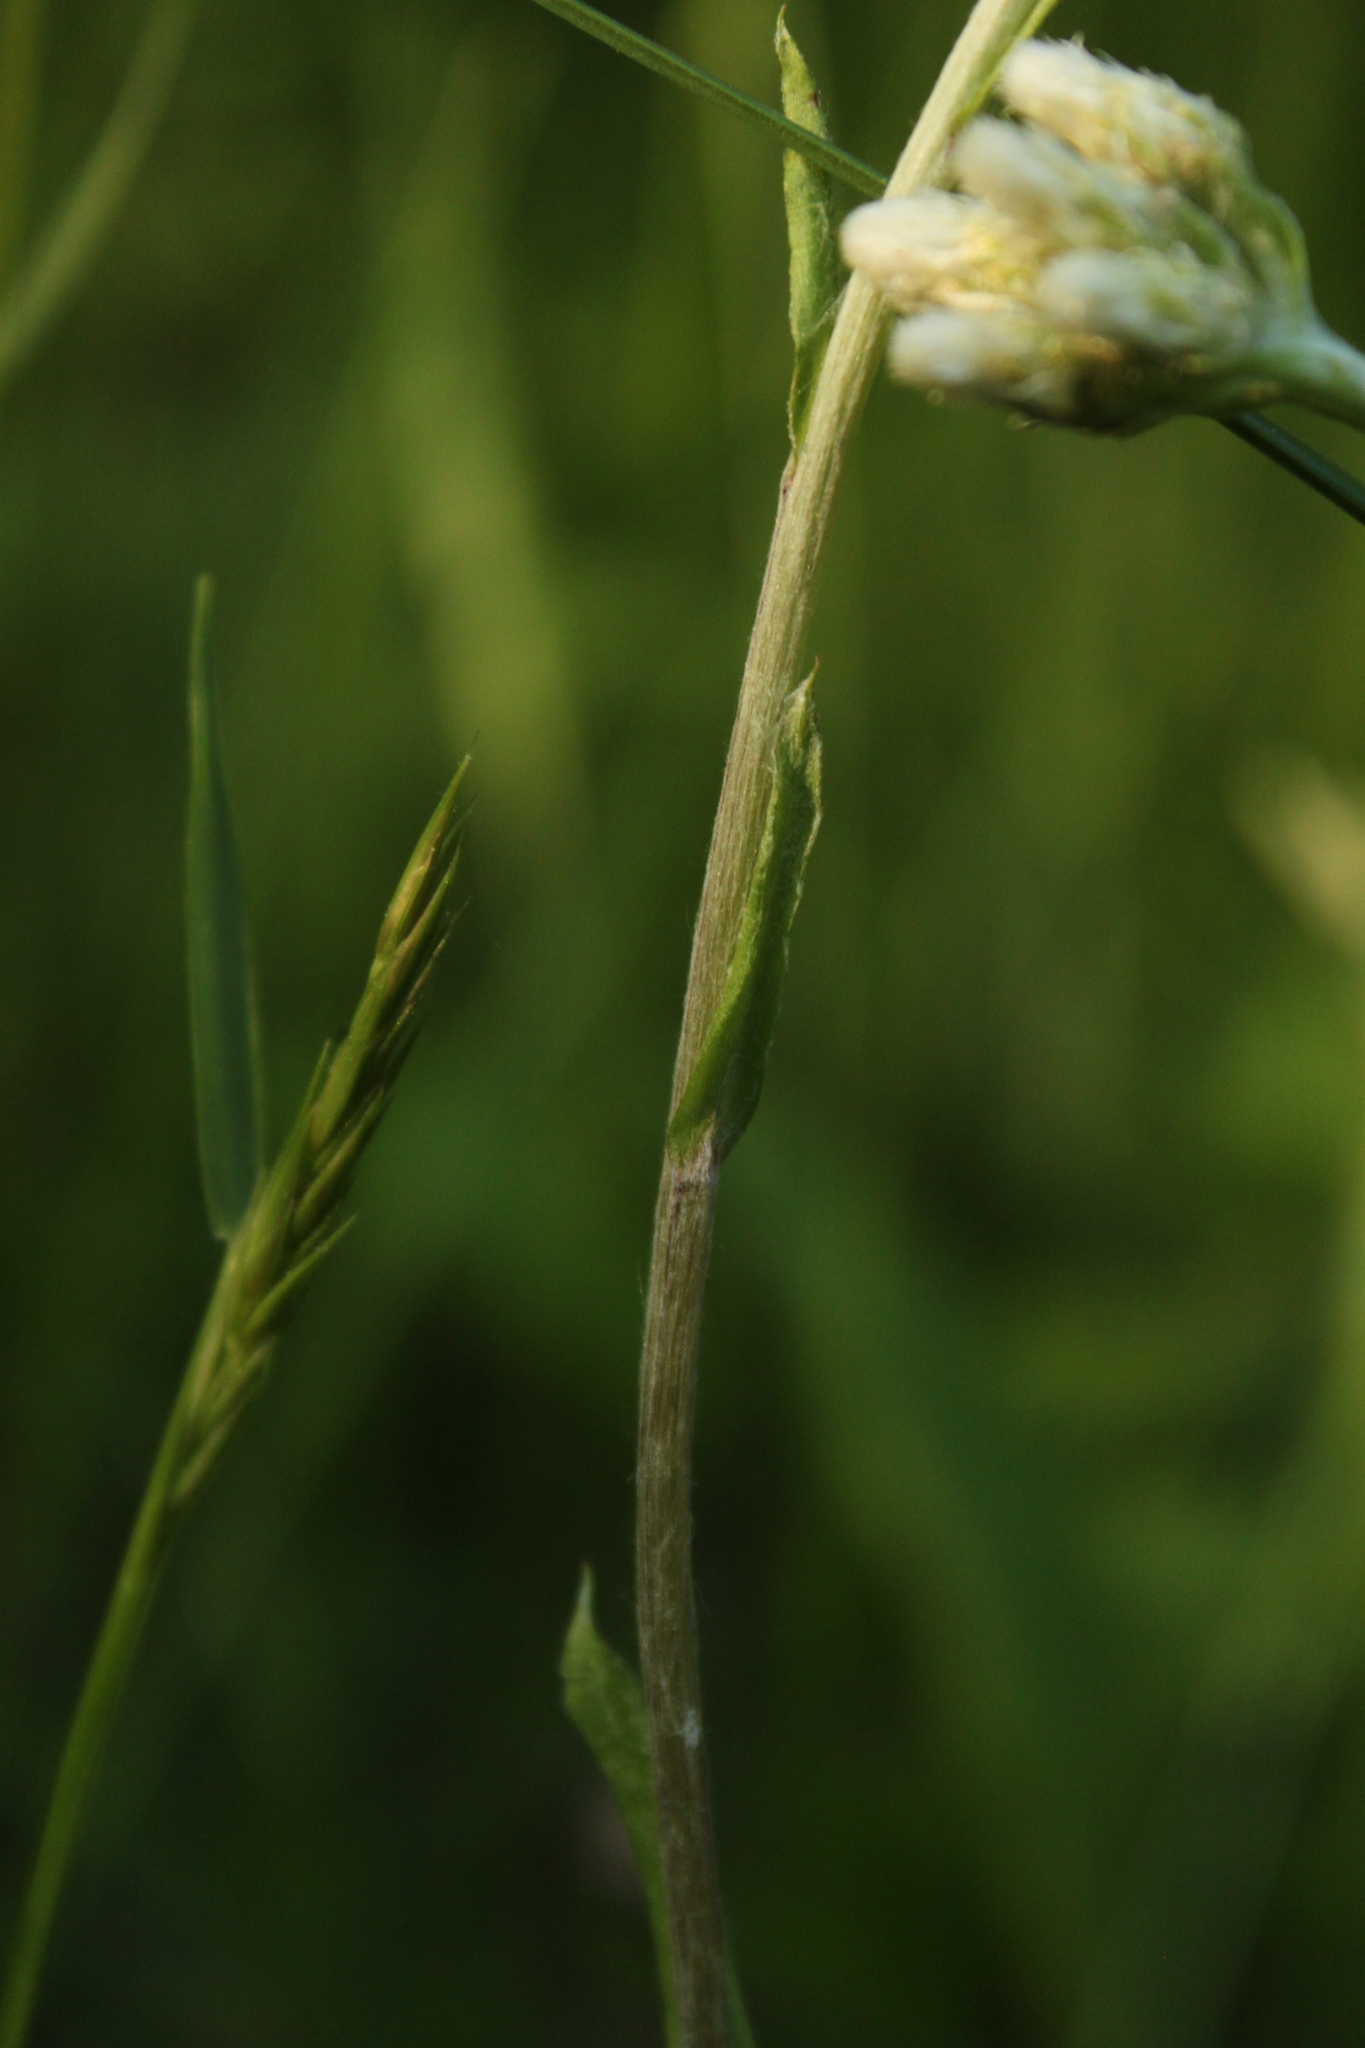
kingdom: Plantae
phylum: Tracheophyta
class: Magnoliopsida
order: Asterales
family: Asteraceae
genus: Antennaria
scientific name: Antennaria howellii
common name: Howell's pussytoes
